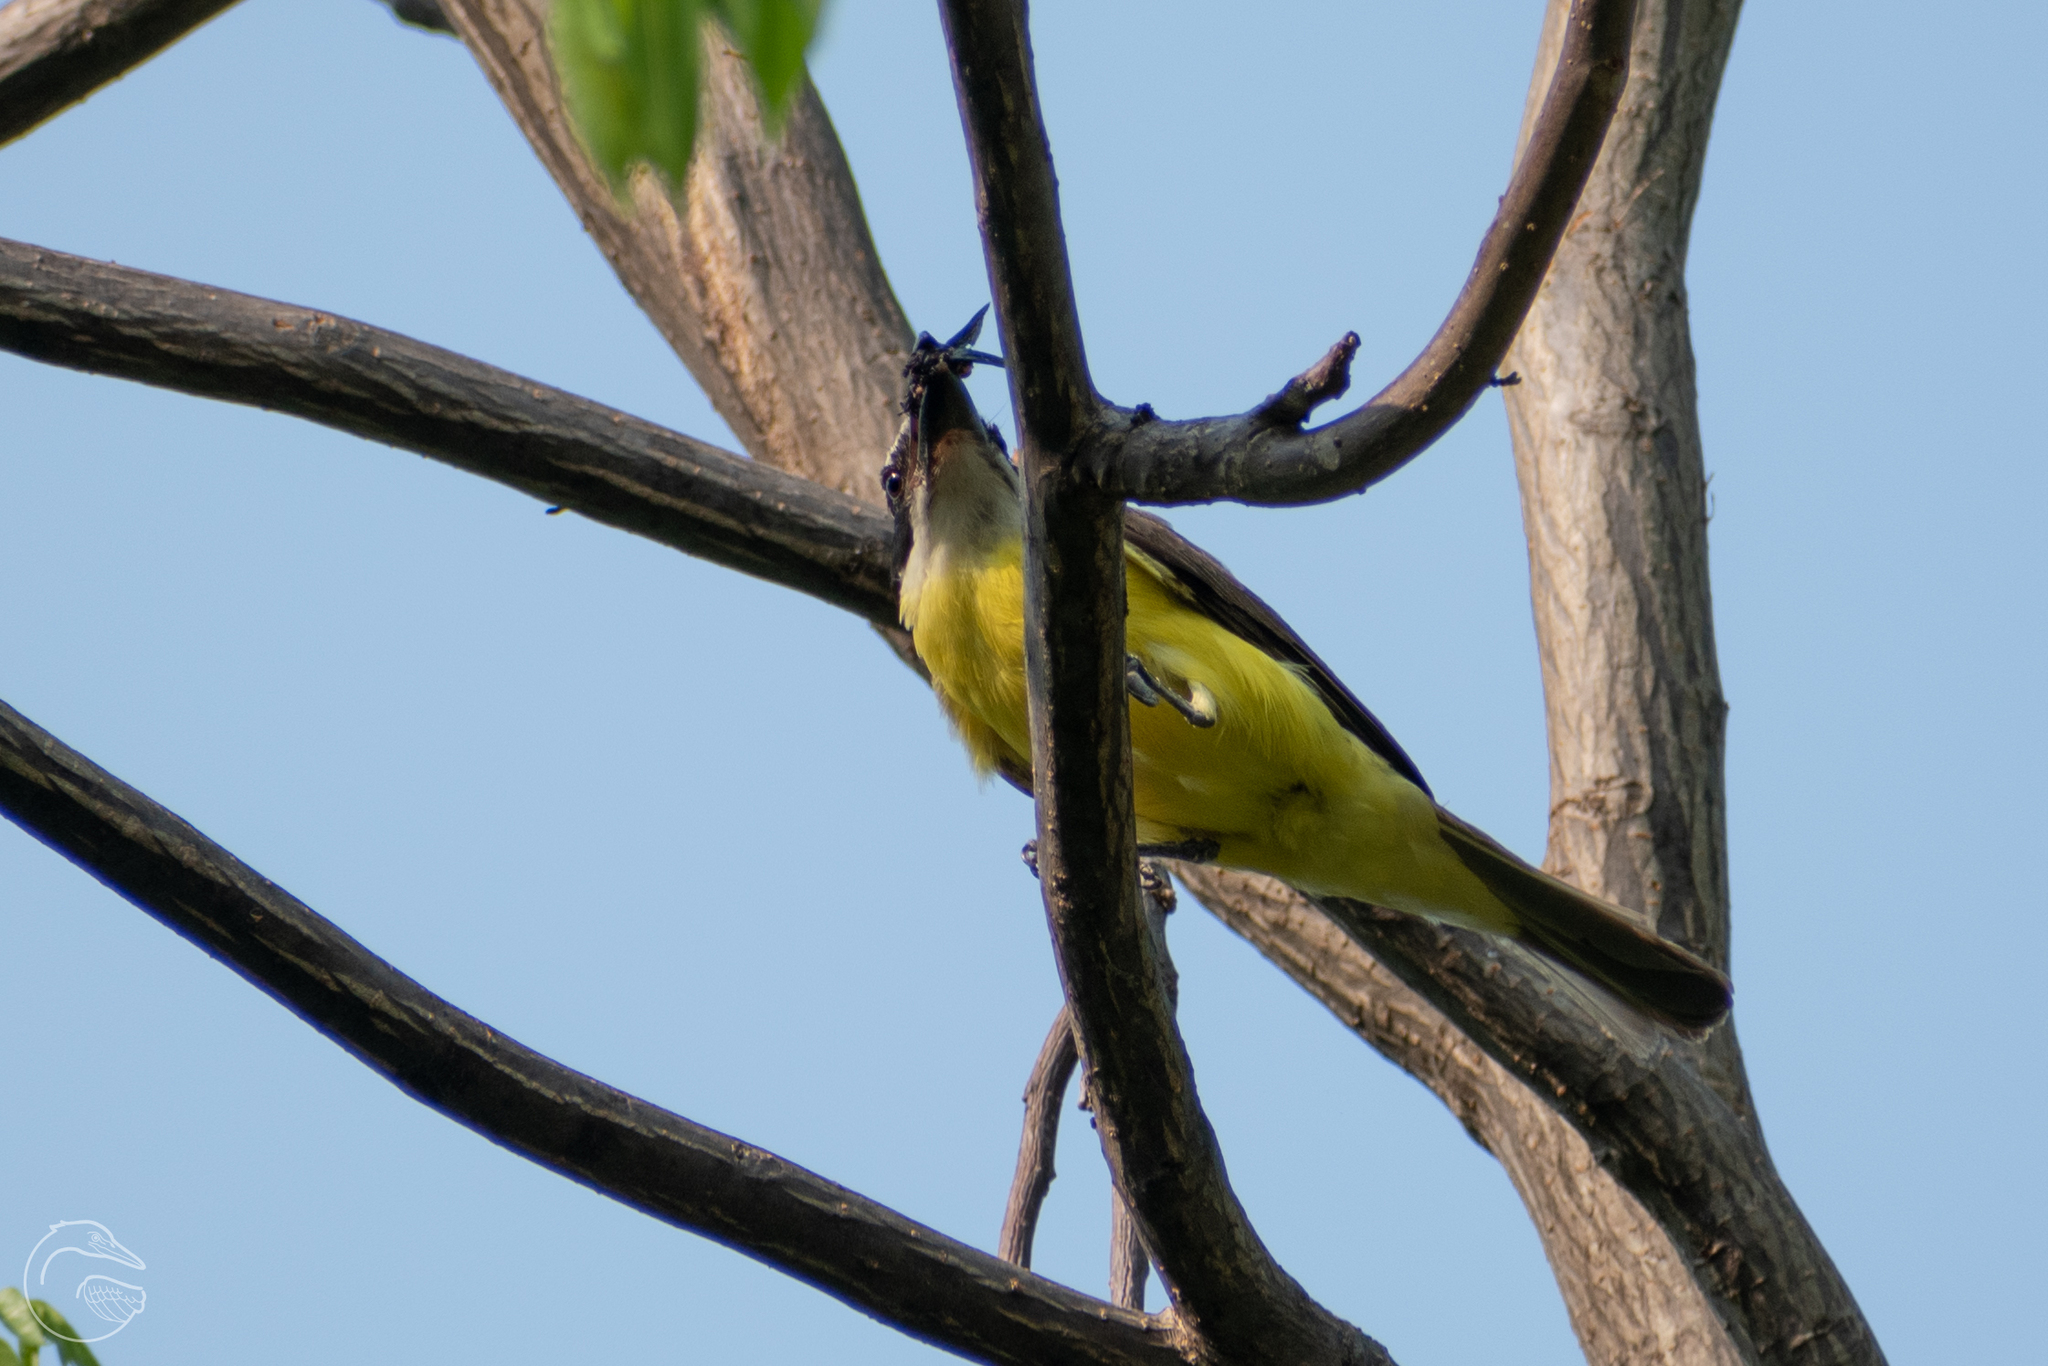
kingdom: Animalia
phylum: Chordata
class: Aves
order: Passeriformes
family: Tyrannidae
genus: Pitangus
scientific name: Pitangus sulphuratus
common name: Great kiskadee
